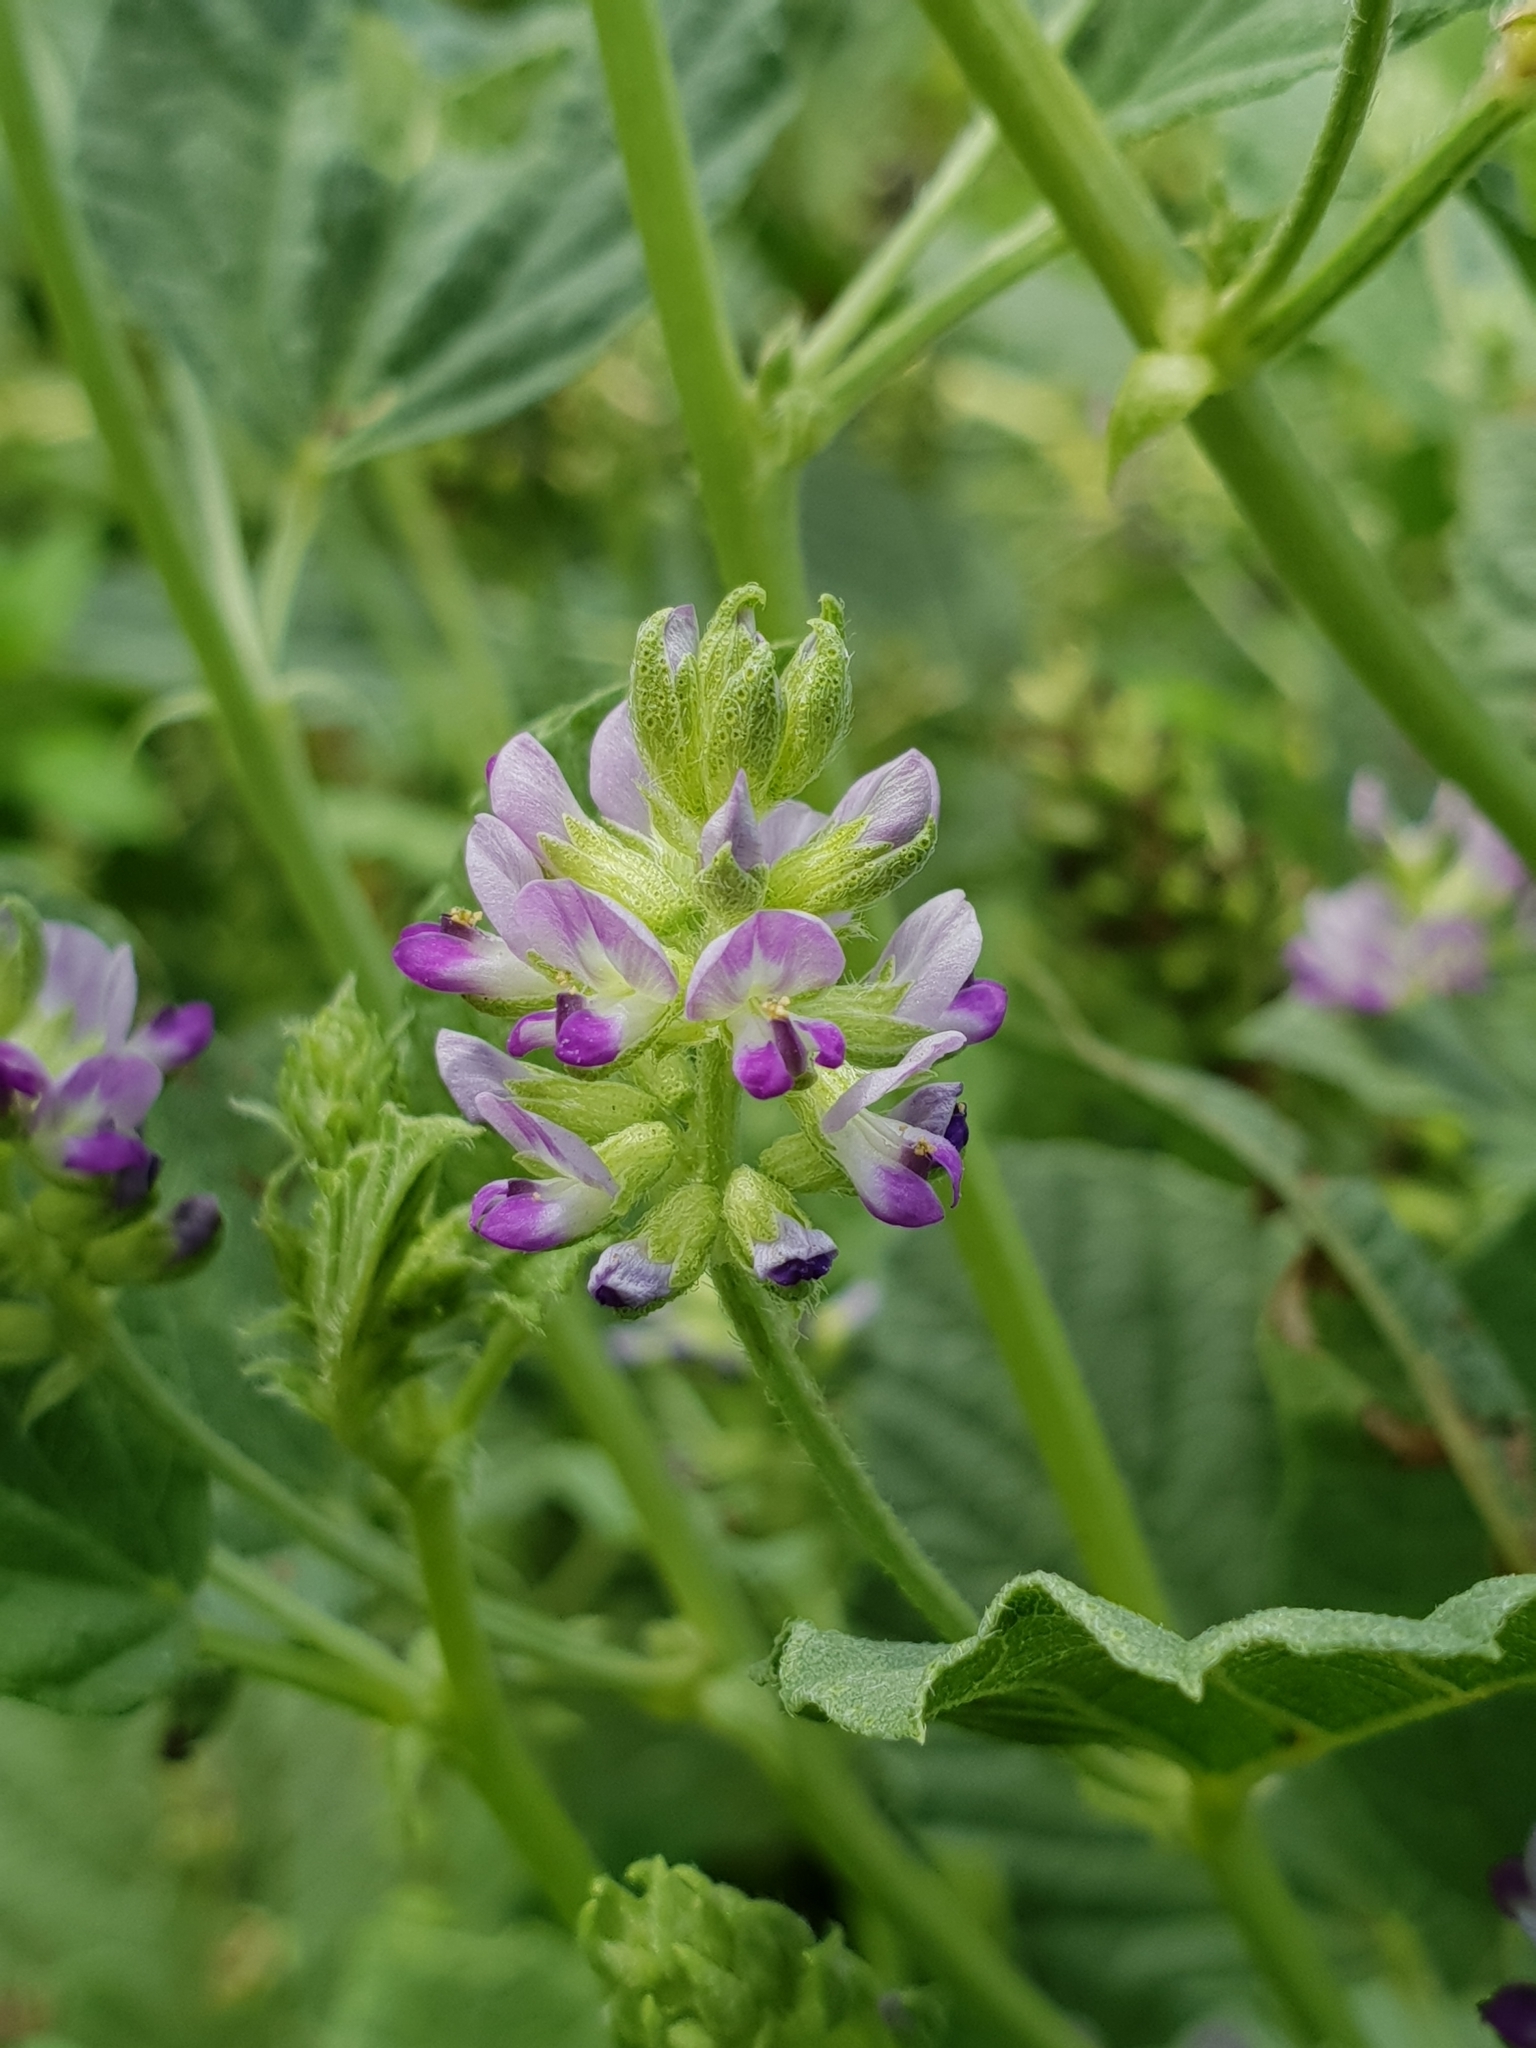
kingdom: Plantae
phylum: Tracheophyta
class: Magnoliopsida
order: Fabales
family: Fabaceae
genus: Cullen
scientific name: Cullen corylifolium
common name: Malaysian scurfpea
